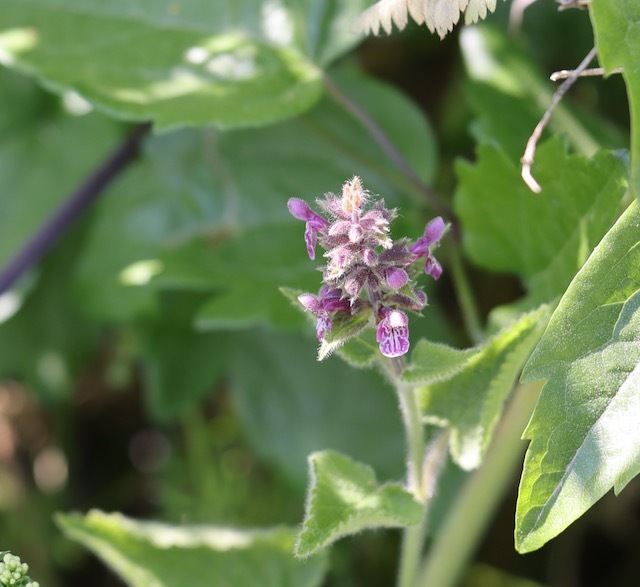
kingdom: Plantae
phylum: Tracheophyta
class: Magnoliopsida
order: Lamiales
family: Lamiaceae
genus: Stachys
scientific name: Stachys sylvatica
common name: Hedge woundwort
